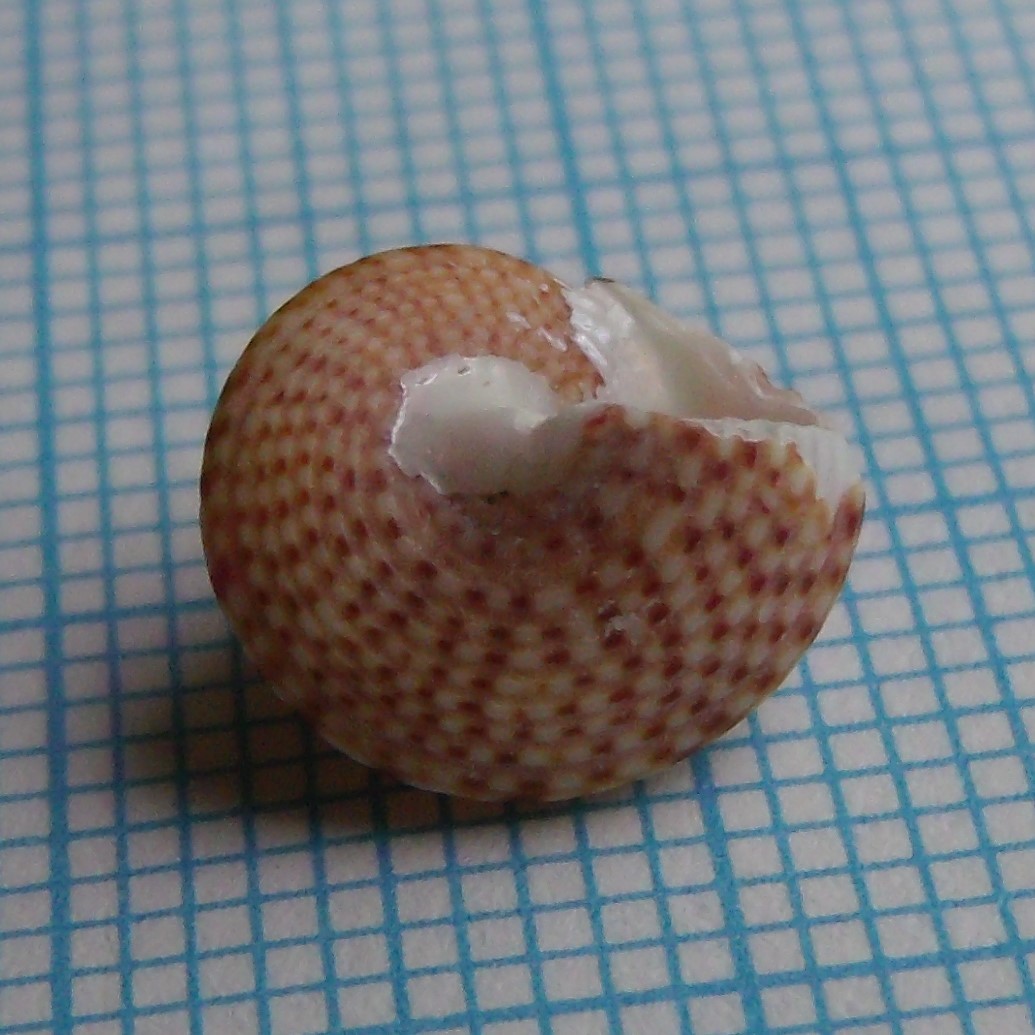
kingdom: Animalia
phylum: Mollusca
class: Gastropoda
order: Trochida
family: Calliostomatidae
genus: Maurea
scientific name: Maurea punctulata
